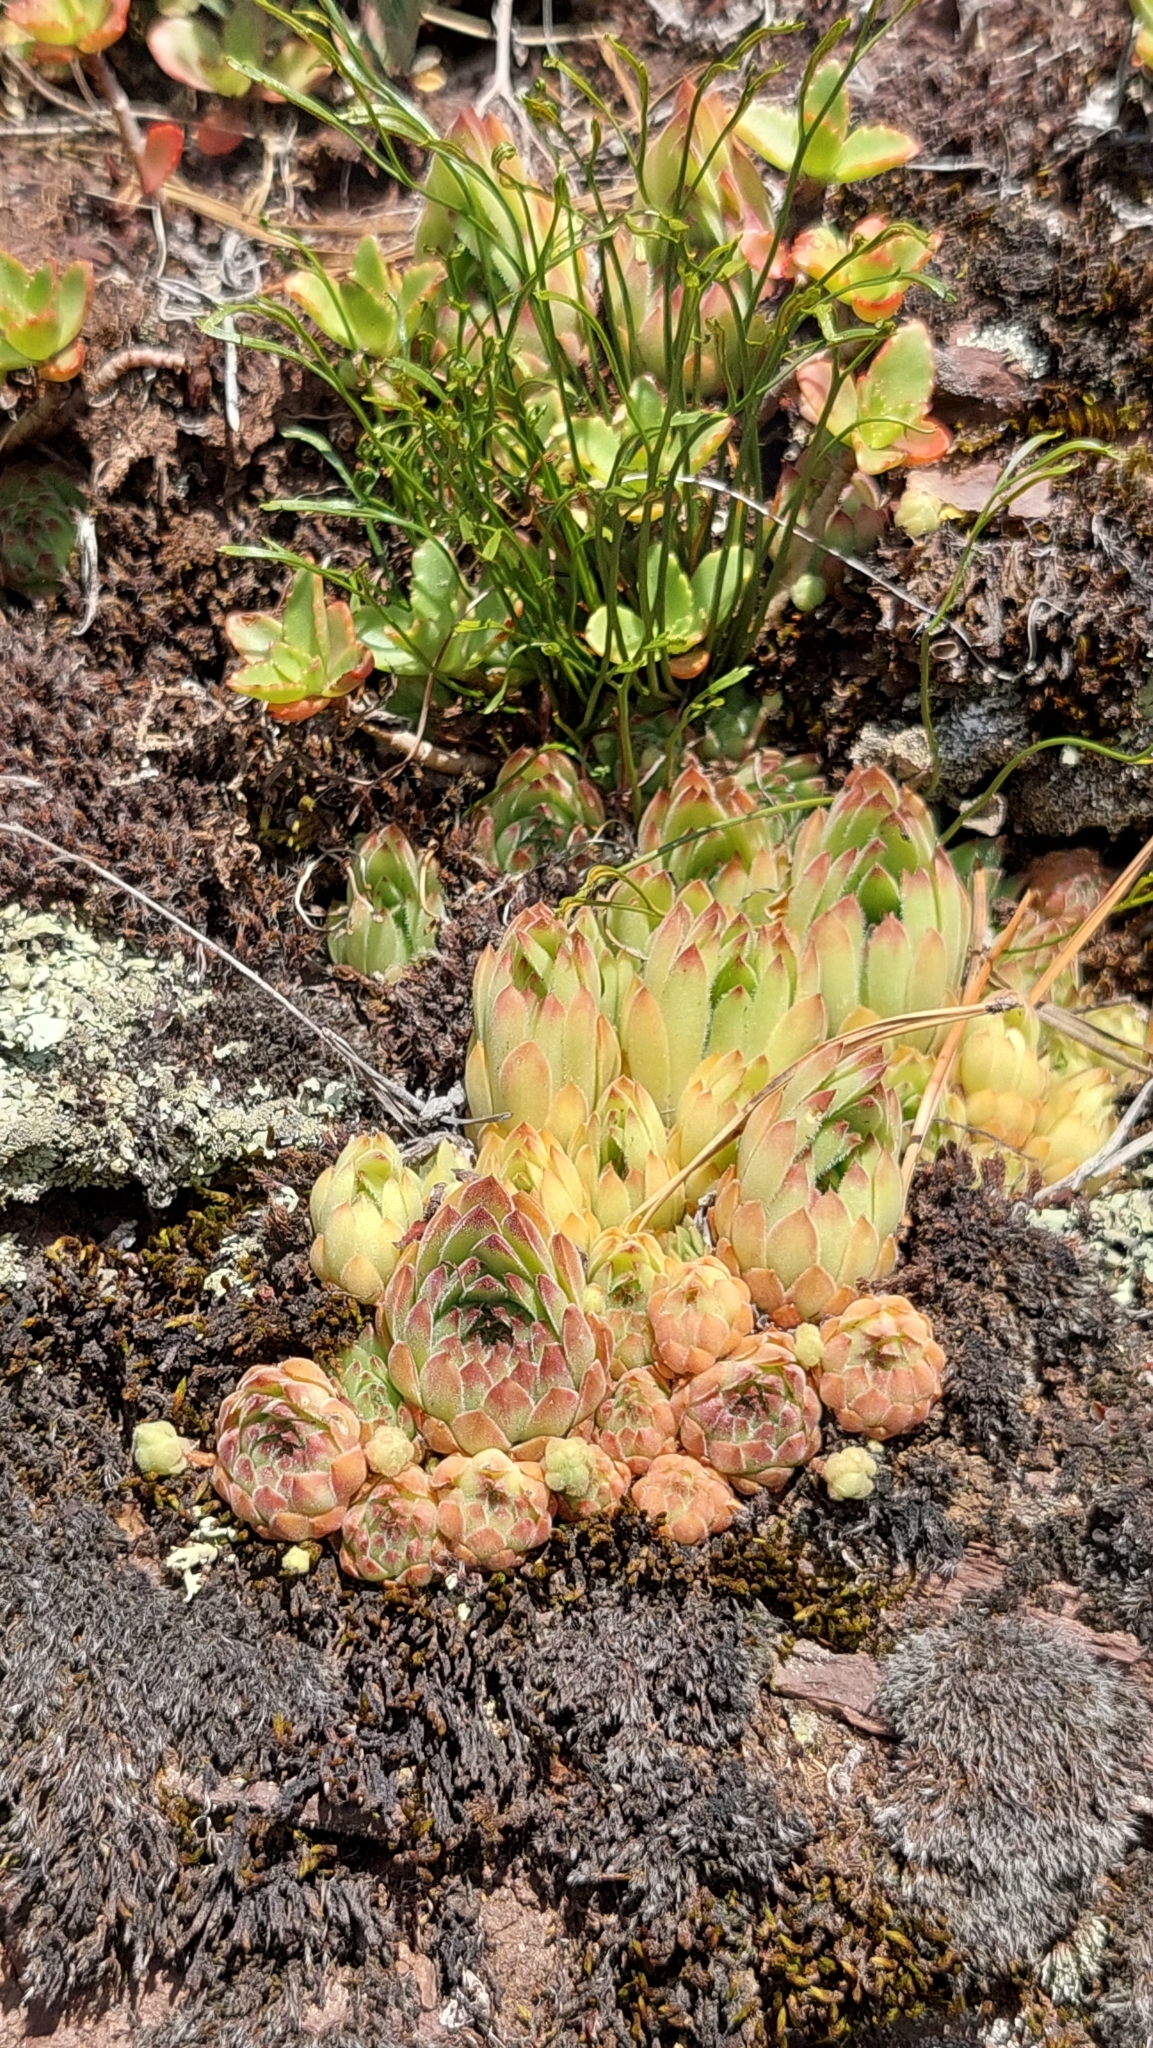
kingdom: Plantae
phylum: Tracheophyta
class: Magnoliopsida
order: Saxifragales
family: Crassulaceae
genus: Sempervivum
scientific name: Sempervivum caucasicum
